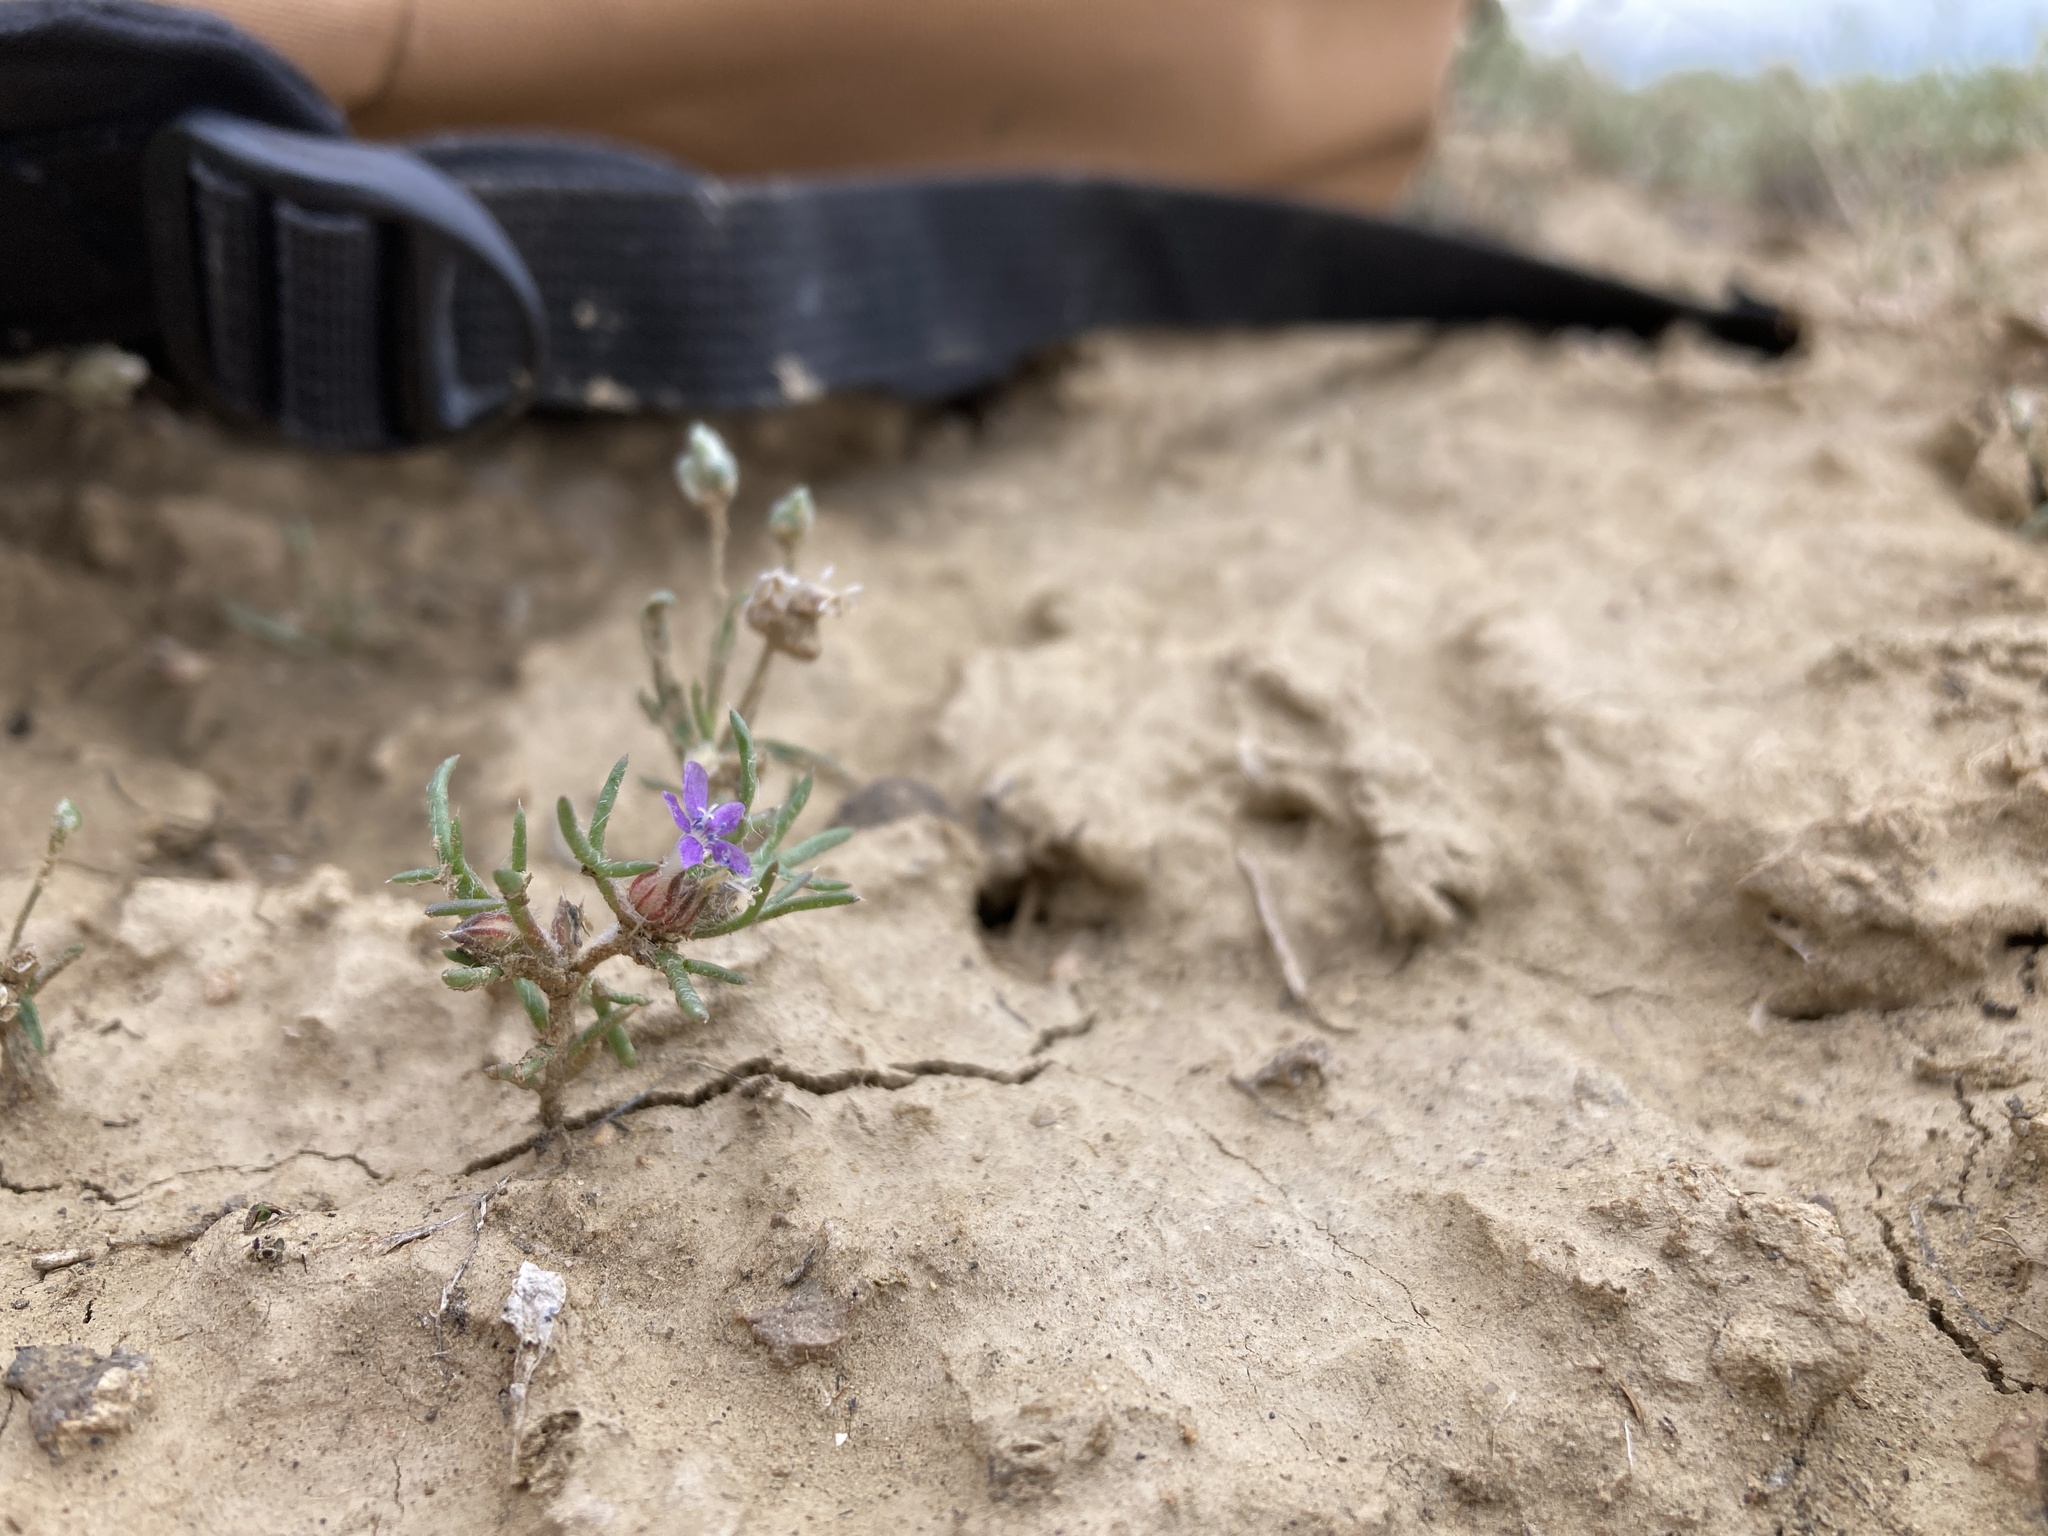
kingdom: Plantae
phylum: Tracheophyta
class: Magnoliopsida
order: Ericales
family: Polemoniaceae
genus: Ipomopsis
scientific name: Ipomopsis pumila
